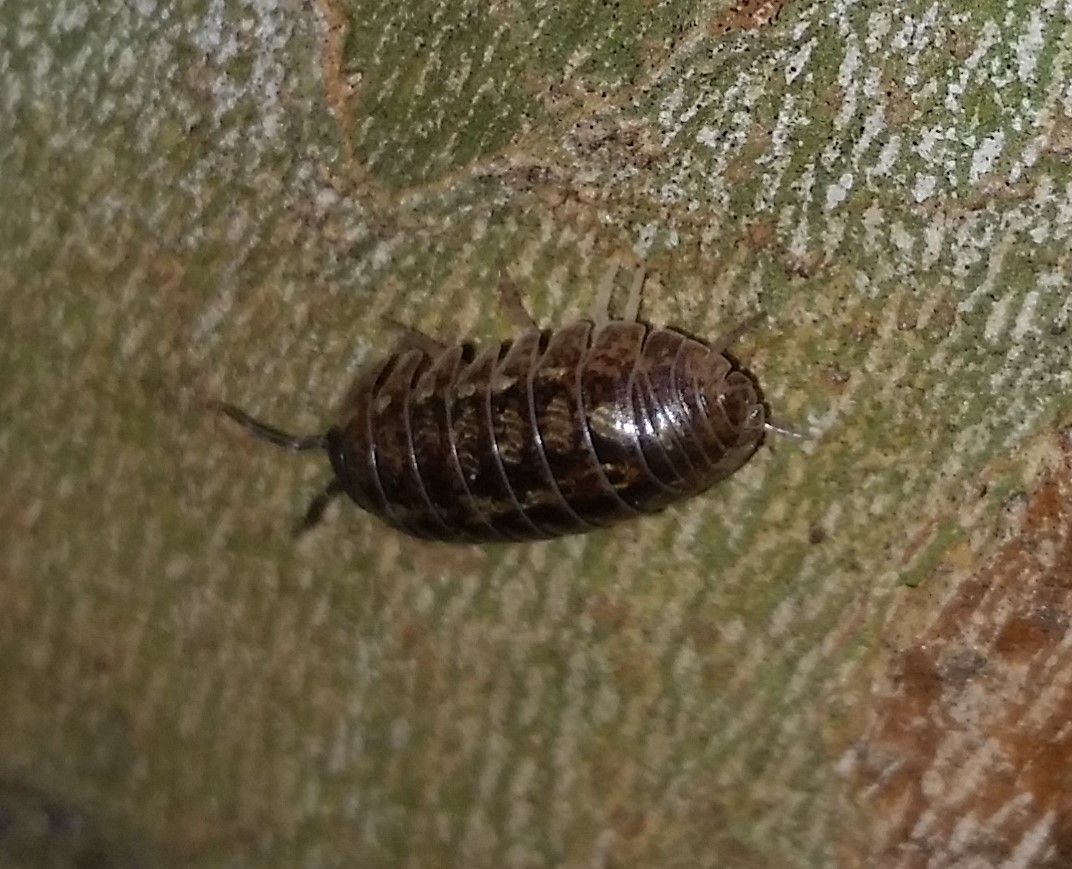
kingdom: Animalia
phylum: Arthropoda
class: Malacostraca
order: Isopoda
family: Armadillidiidae
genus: Armadillidium
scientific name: Armadillidium vulgare
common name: Common pill woodlouse
